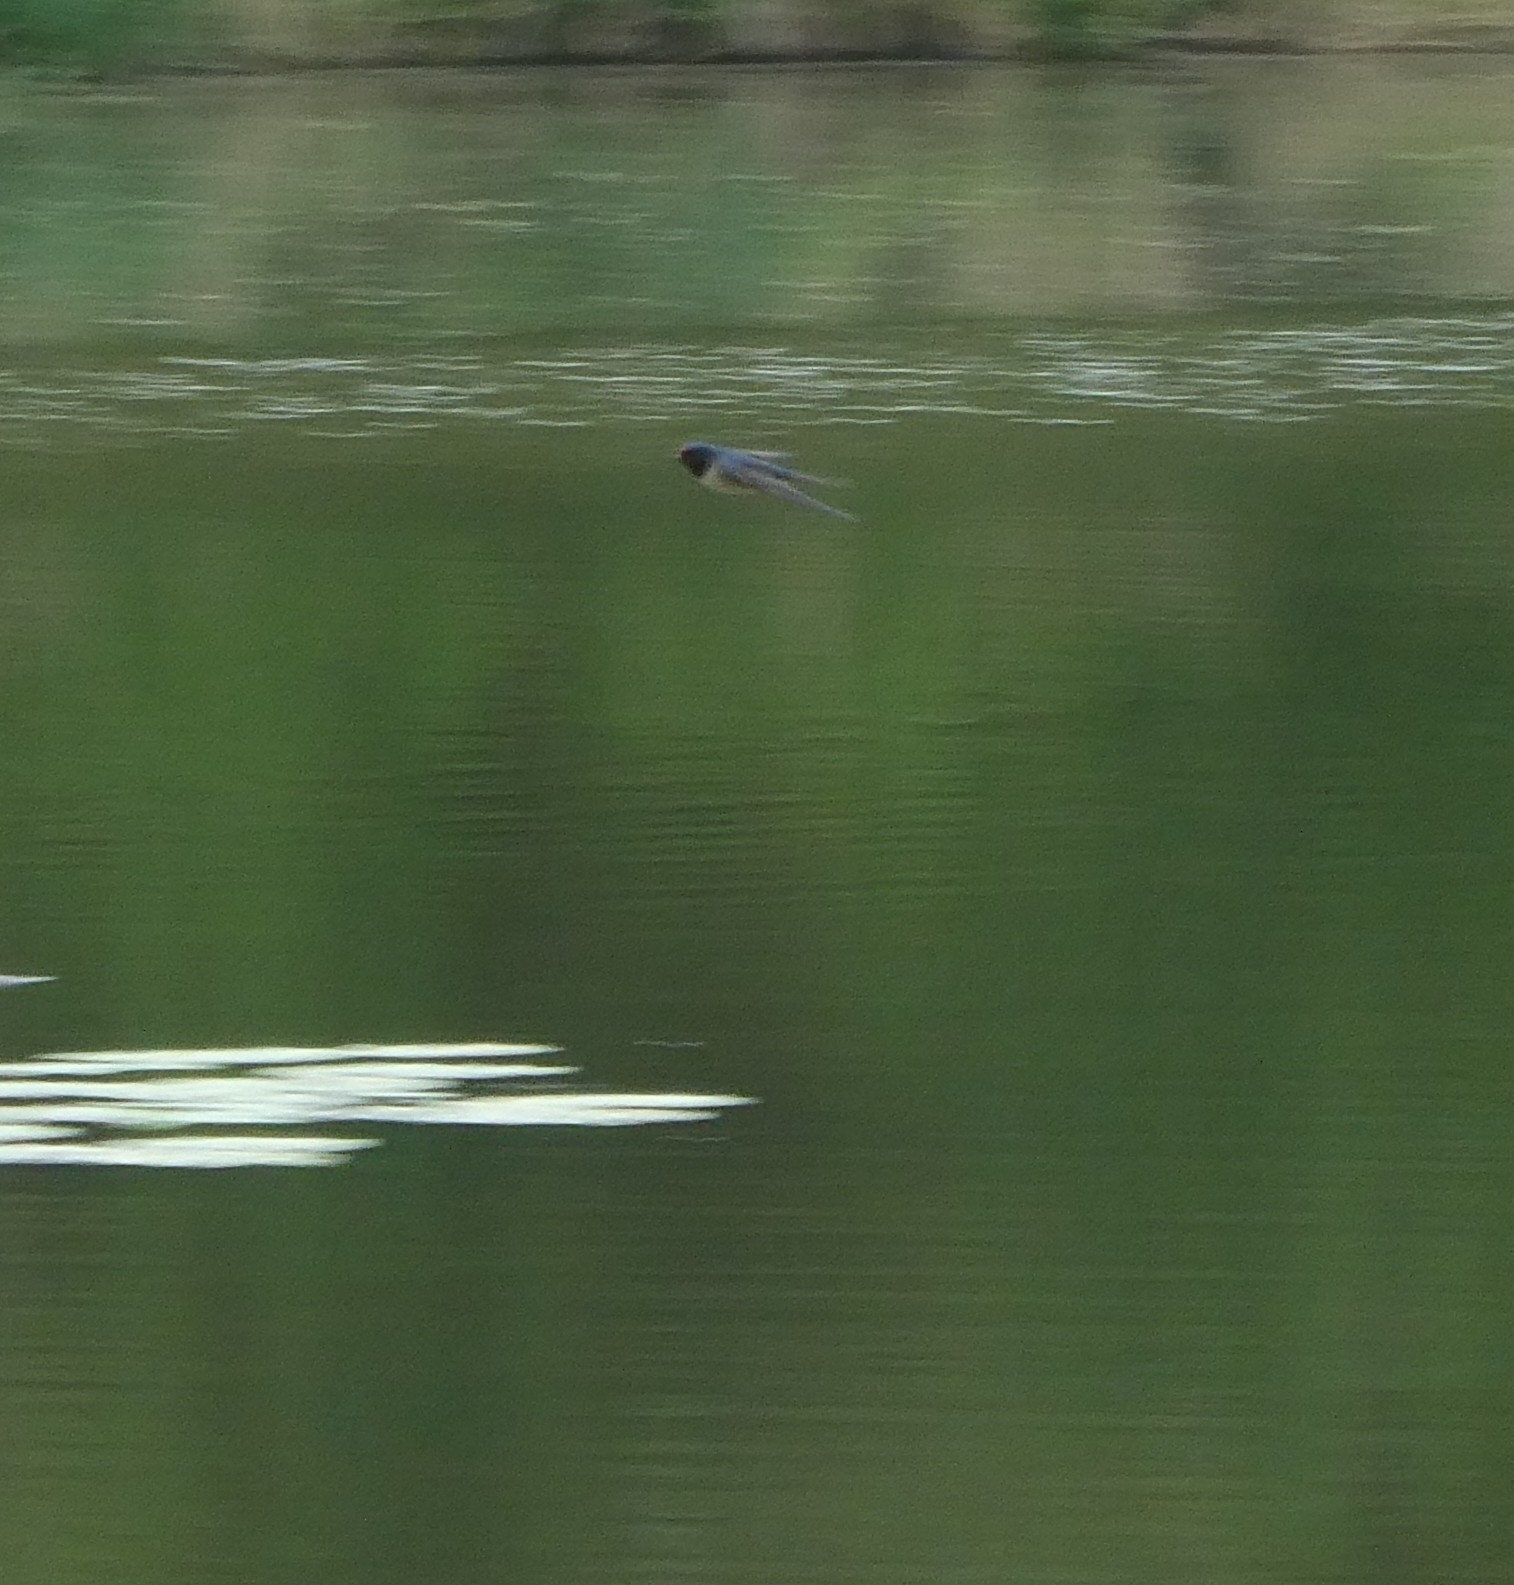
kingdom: Animalia
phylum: Chordata
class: Aves
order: Passeriformes
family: Hirundinidae
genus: Hirundo
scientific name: Hirundo rustica
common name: Barn swallow
